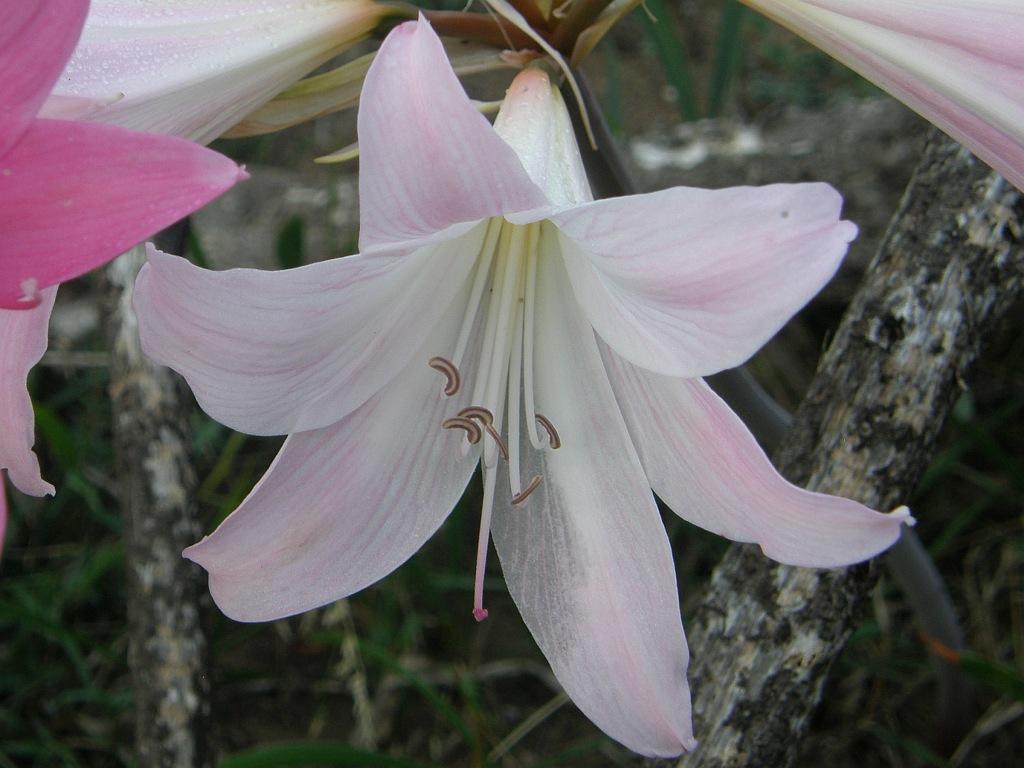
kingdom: Plantae
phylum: Tracheophyta
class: Liliopsida
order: Asparagales
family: Amaryllidaceae
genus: Amaryllis
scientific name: Amaryllis belladonna
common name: Jersey lily
